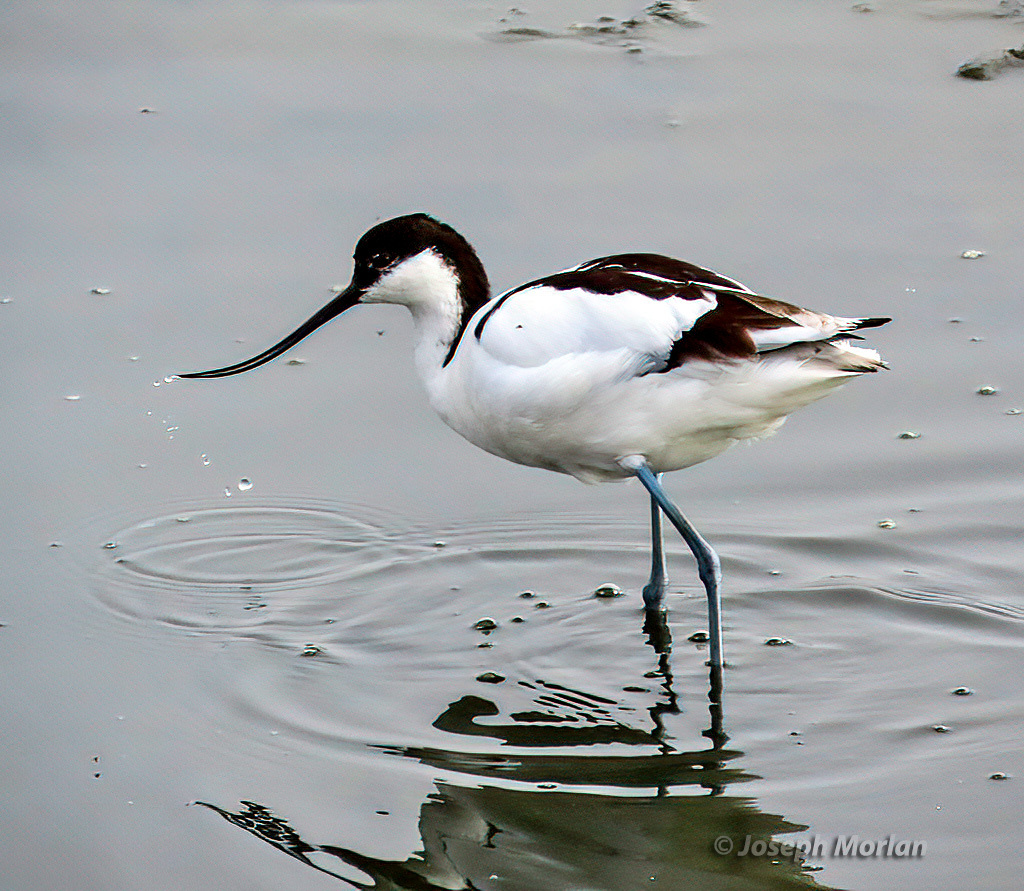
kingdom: Animalia
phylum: Chordata
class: Aves
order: Charadriiformes
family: Recurvirostridae
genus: Recurvirostra
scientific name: Recurvirostra avosetta
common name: Pied avocet
